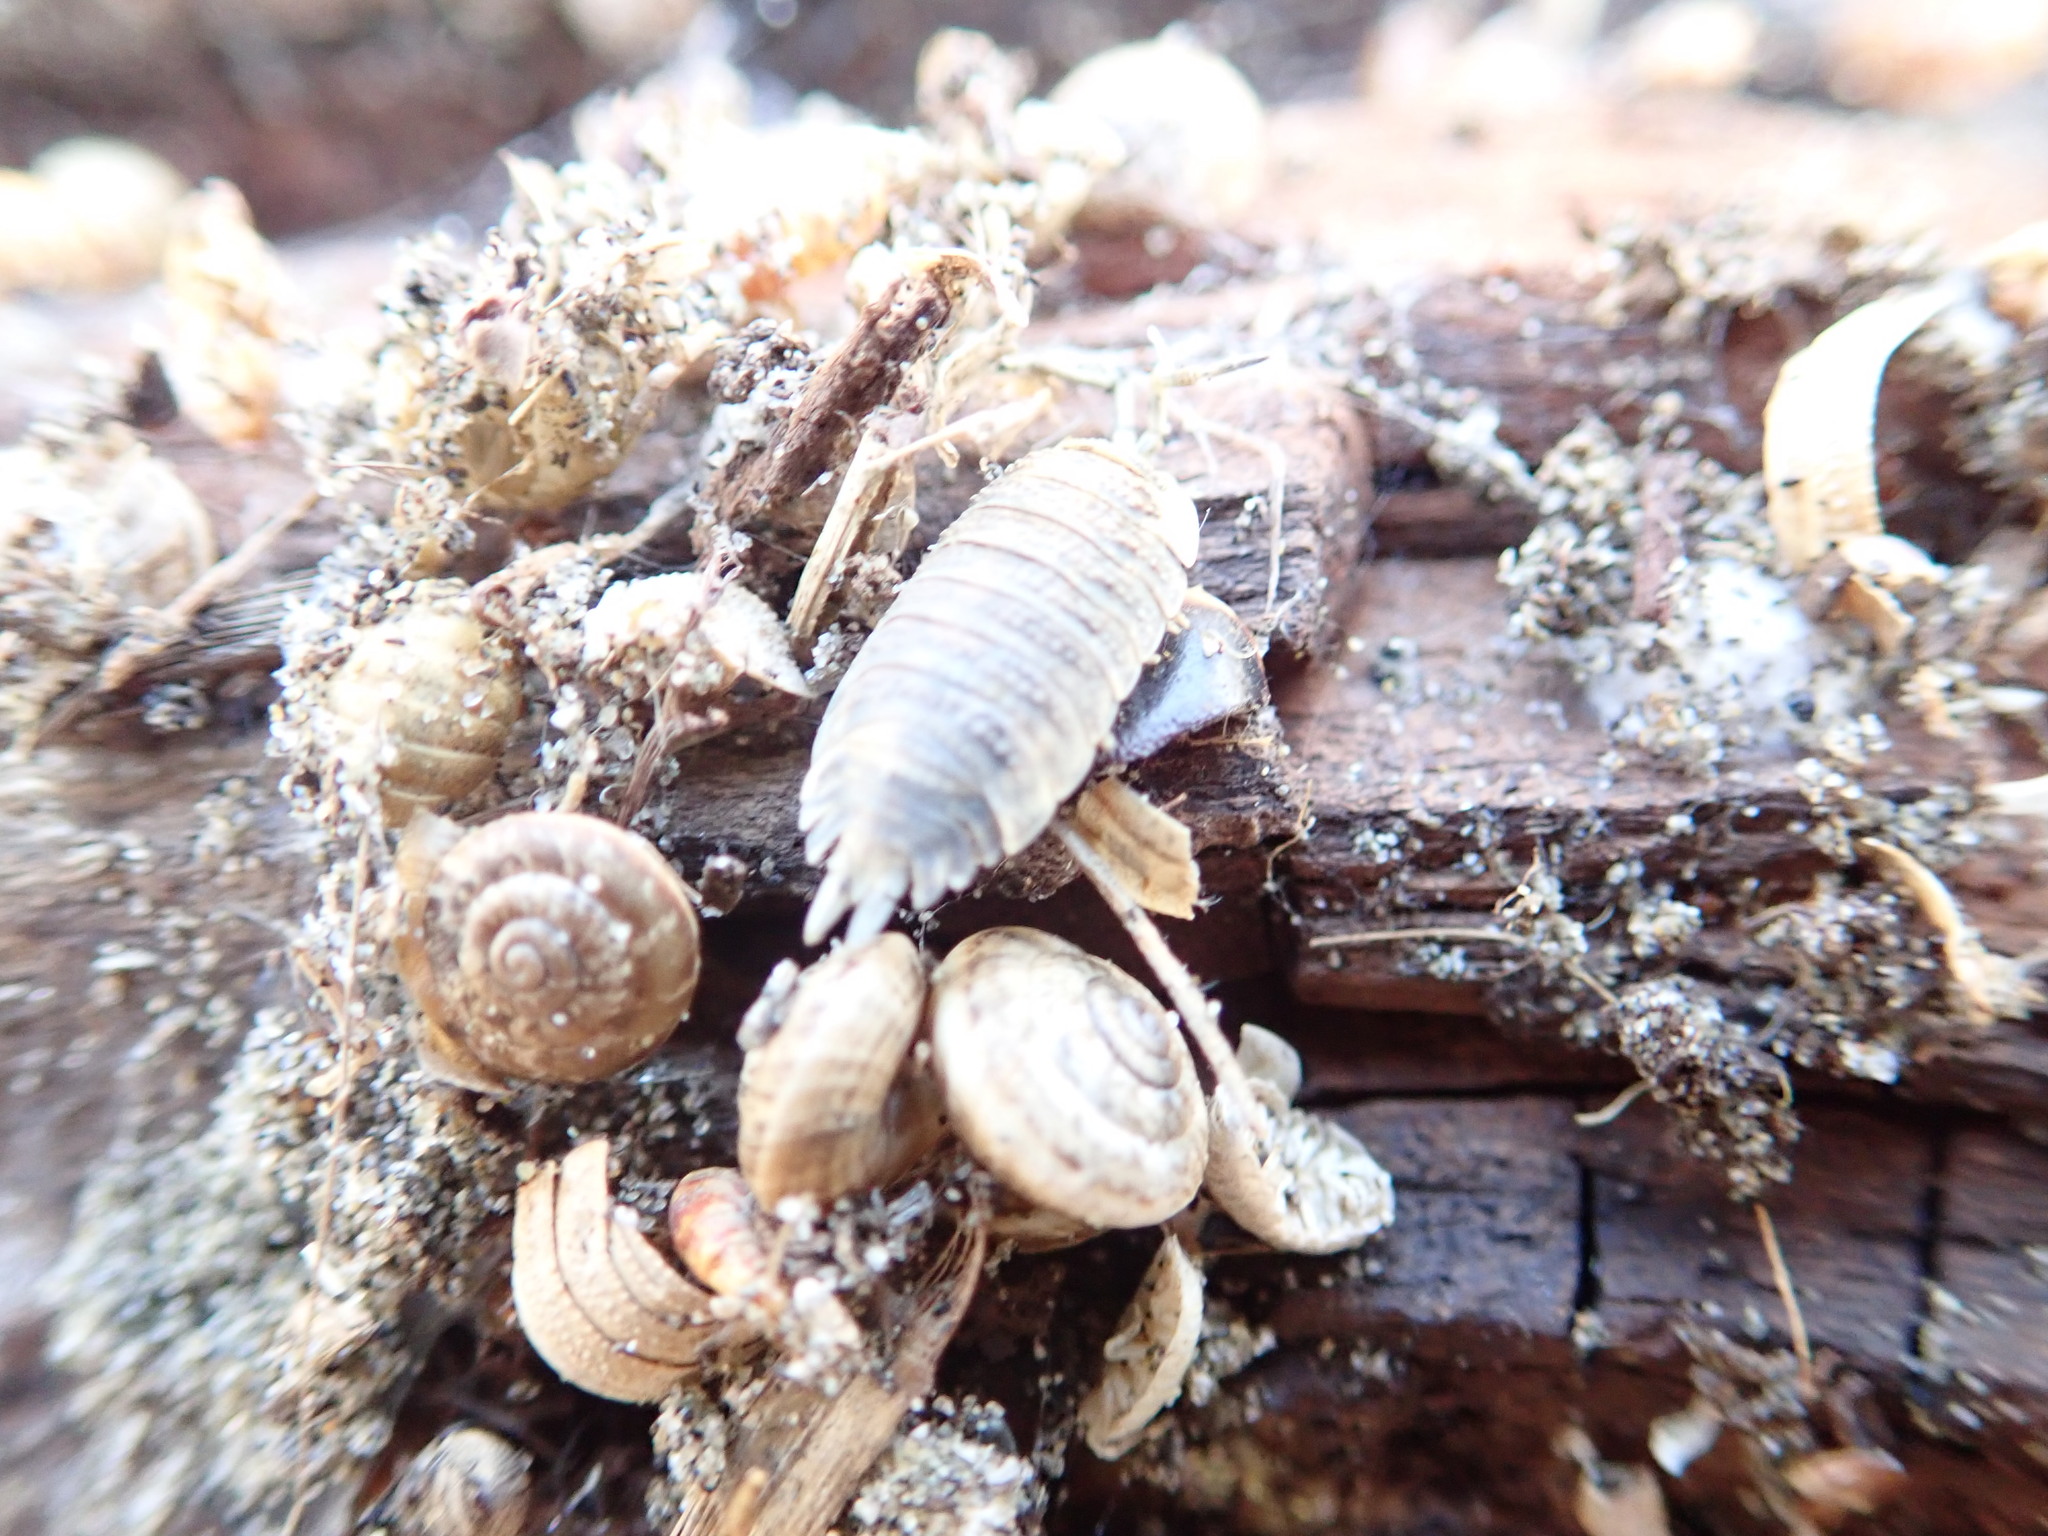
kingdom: Animalia
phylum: Arthropoda
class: Malacostraca
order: Isopoda
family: Porcellionidae
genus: Porcellio
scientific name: Porcellio scaber
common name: Common rough woodlouse
